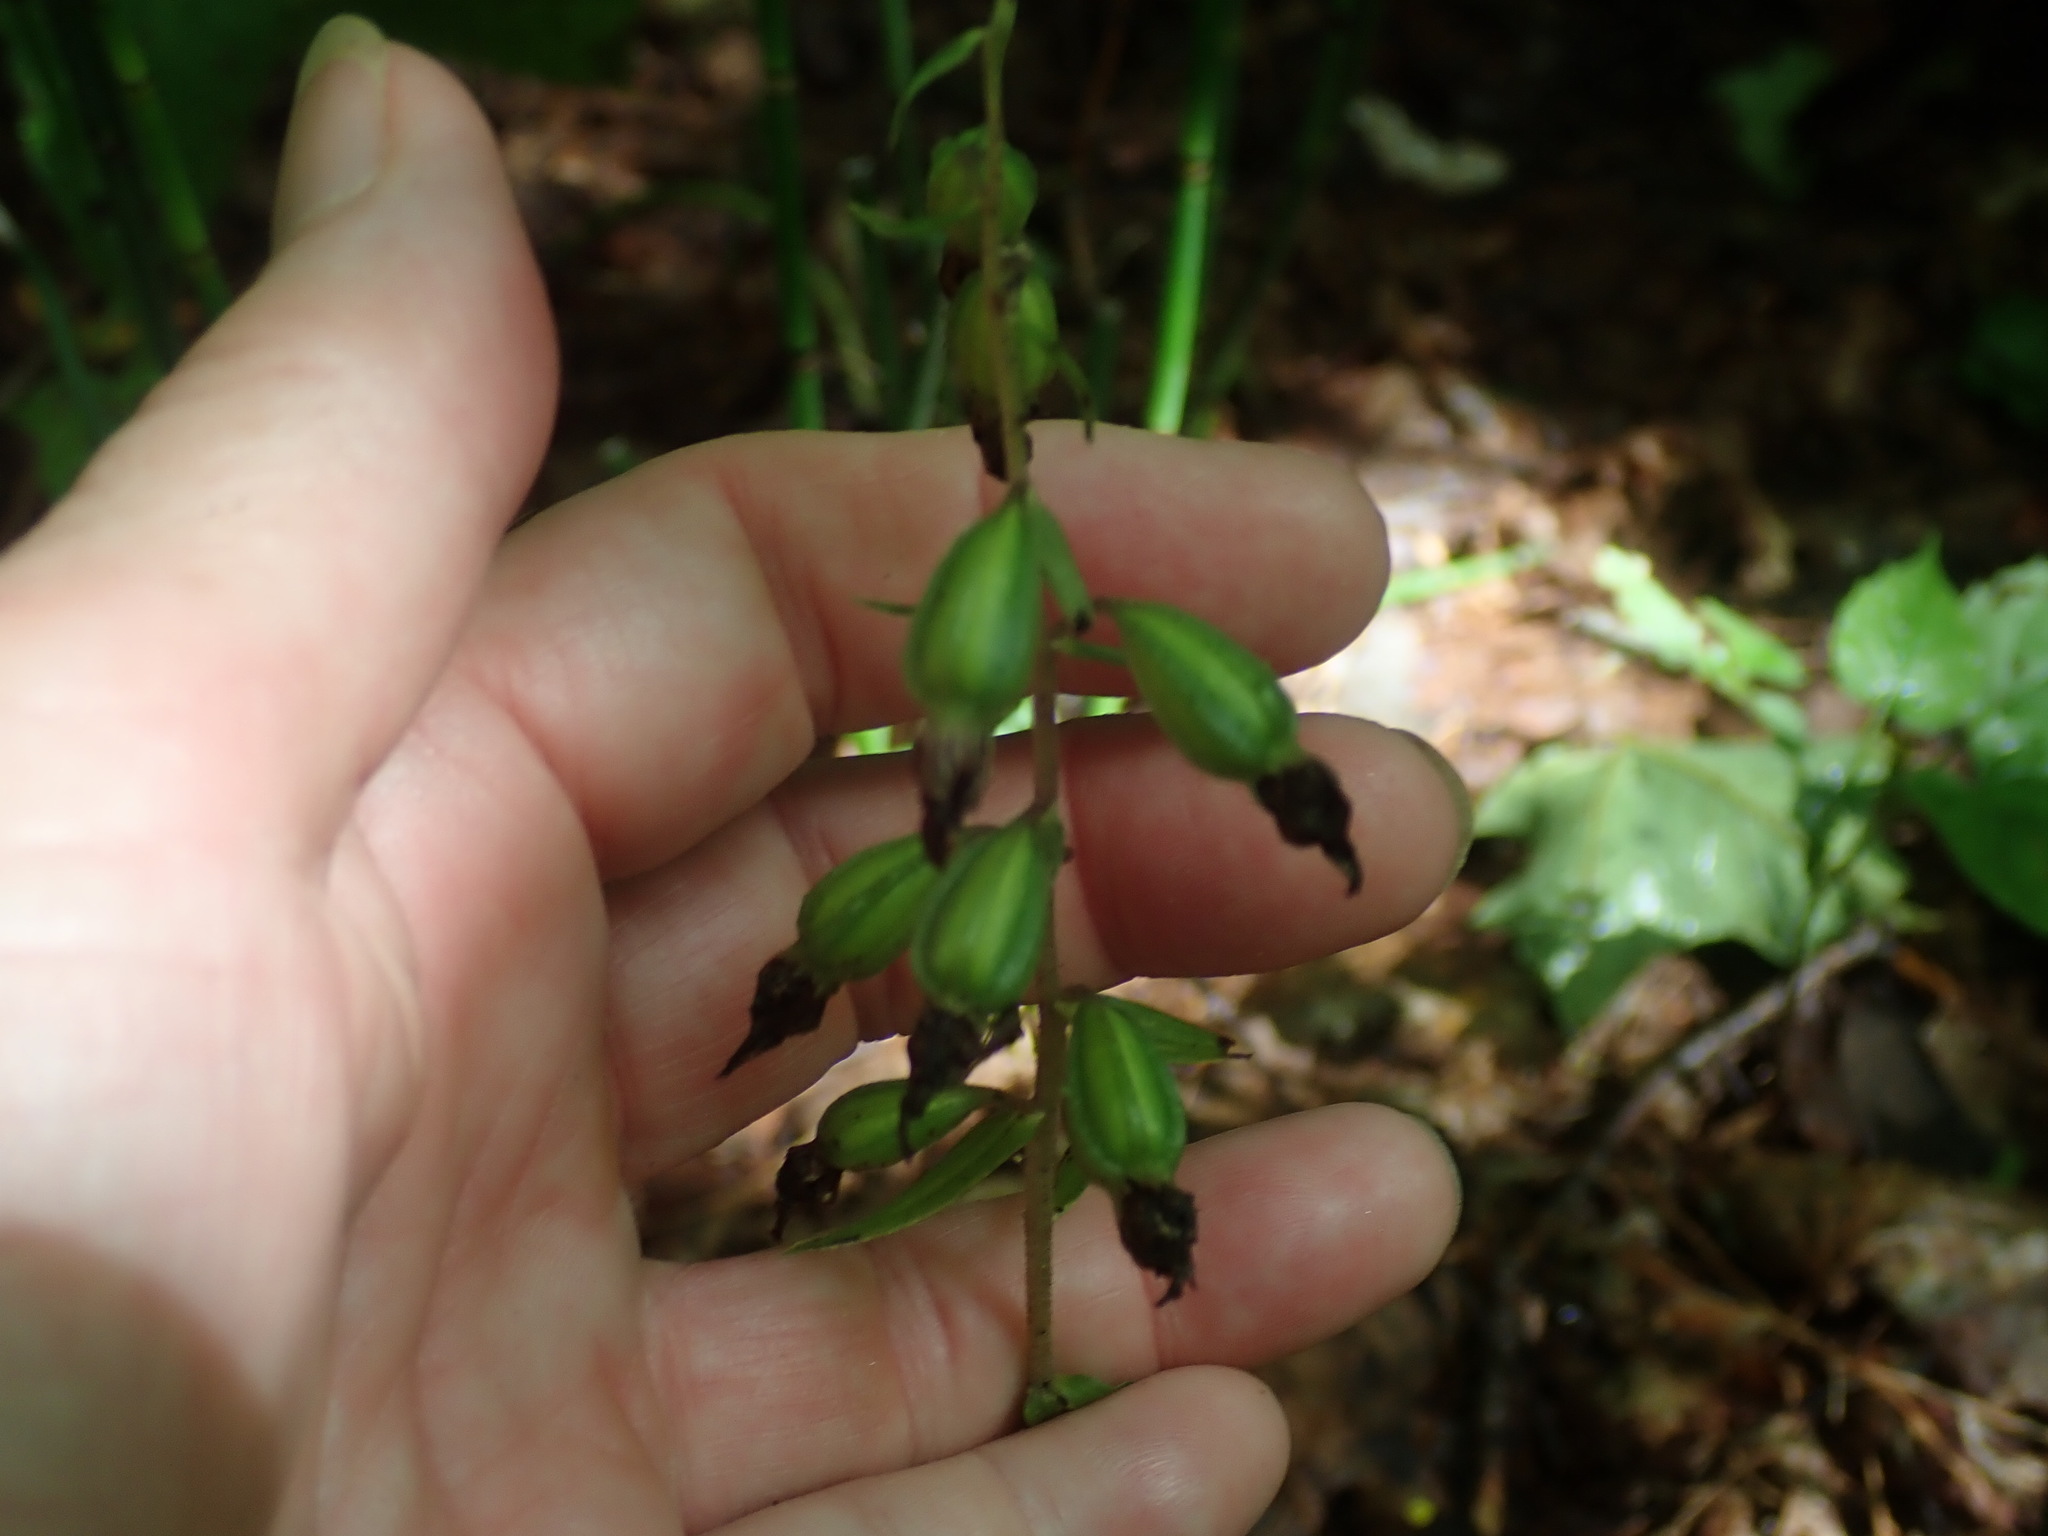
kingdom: Plantae
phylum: Tracheophyta
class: Liliopsida
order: Asparagales
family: Orchidaceae
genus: Epipactis
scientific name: Epipactis helleborine
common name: Broad-leaved helleborine
